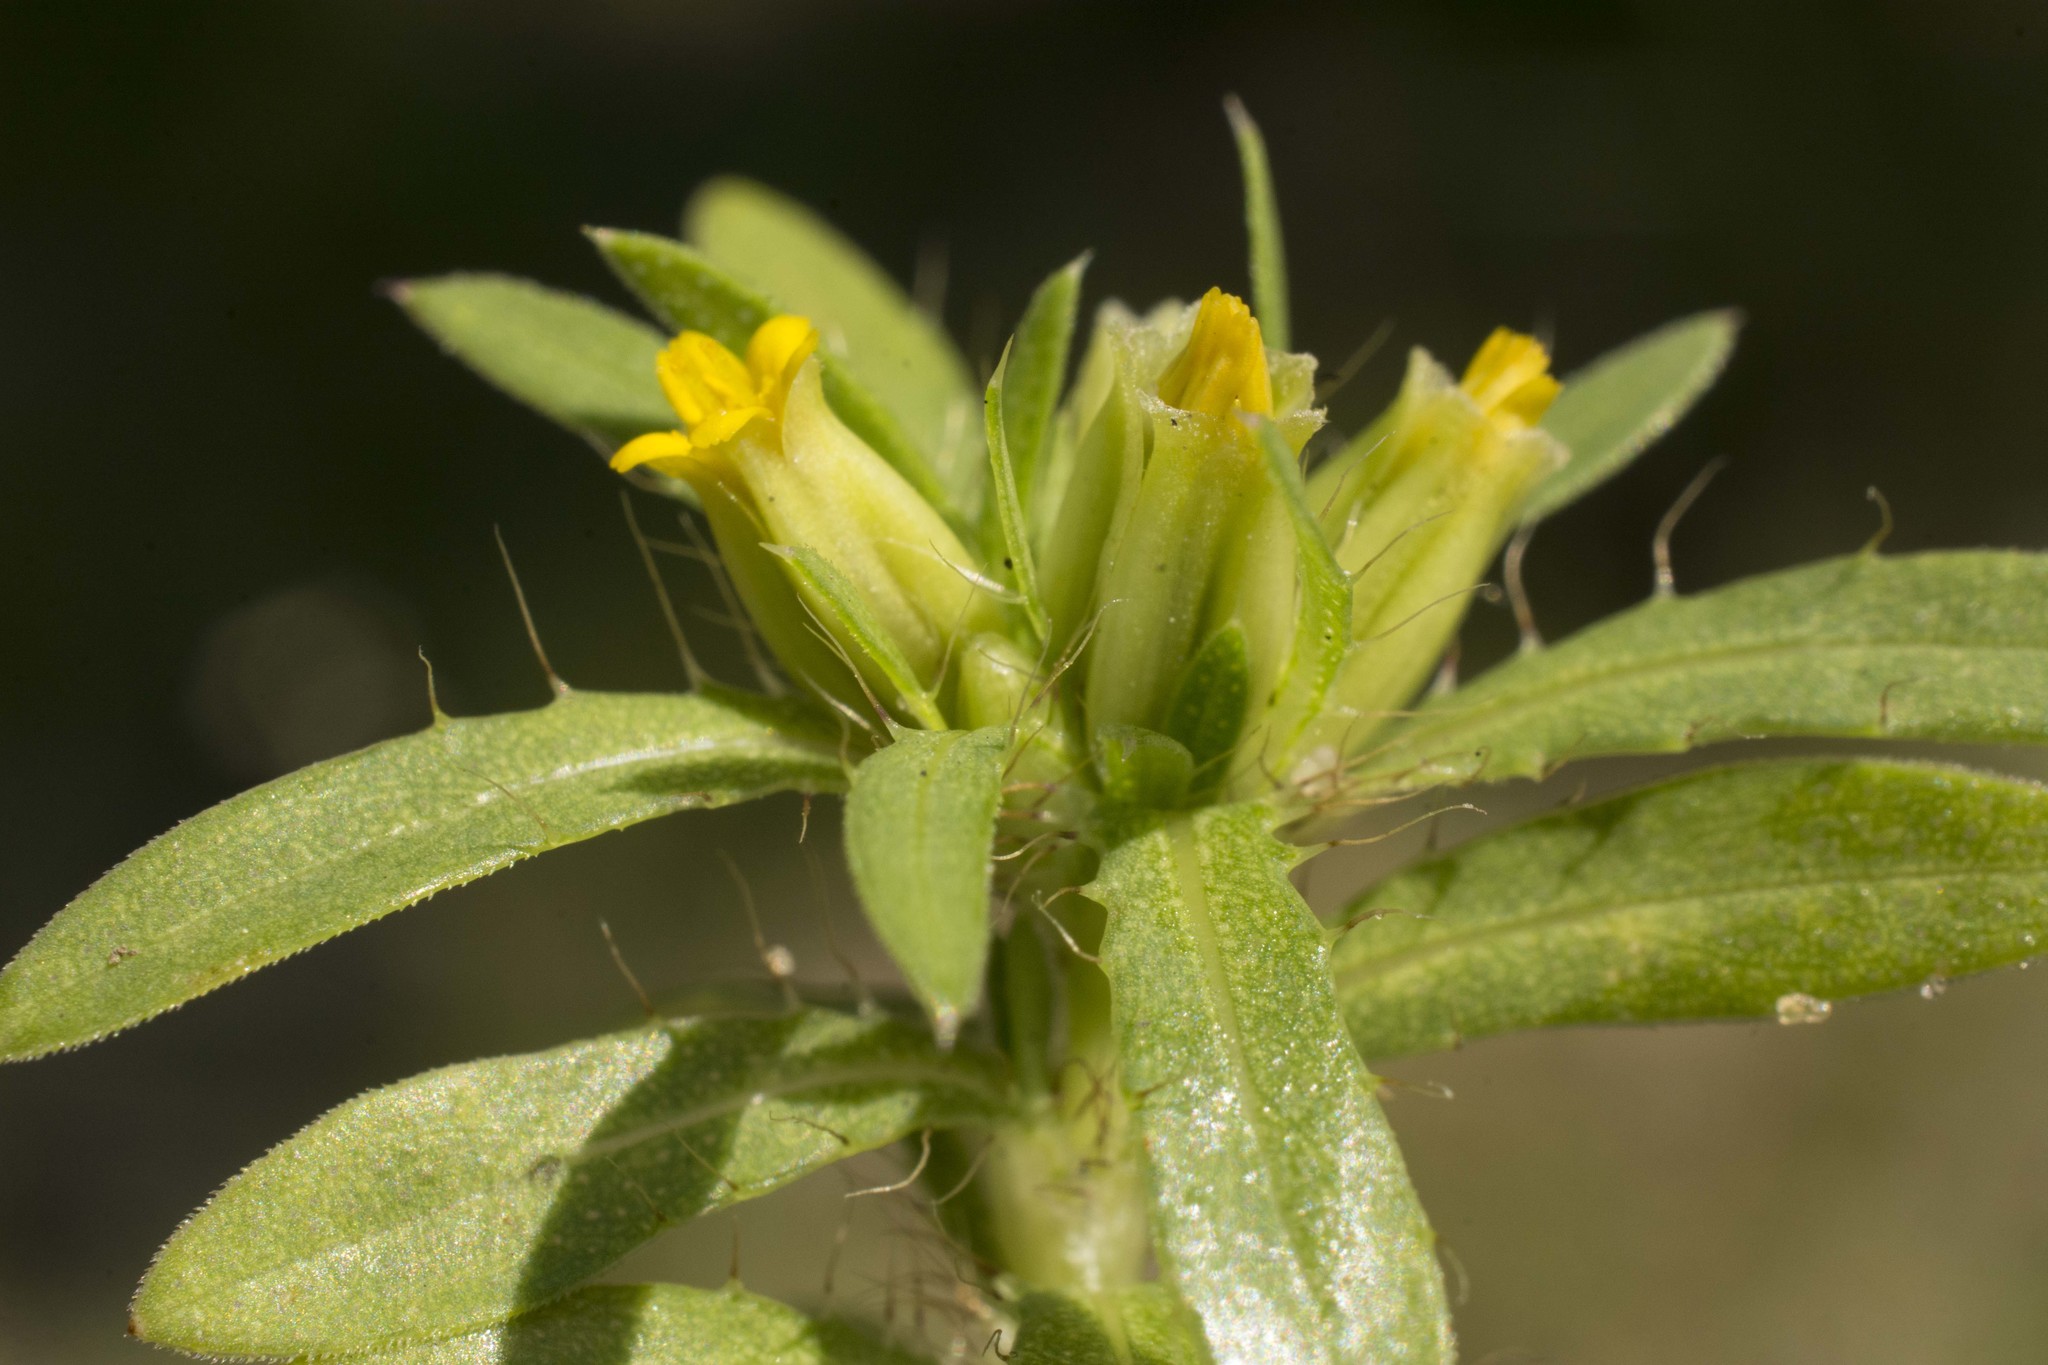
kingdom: Plantae
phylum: Tracheophyta
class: Magnoliopsida
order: Asterales
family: Asteraceae
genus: Pectis
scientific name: Pectis prostrata
